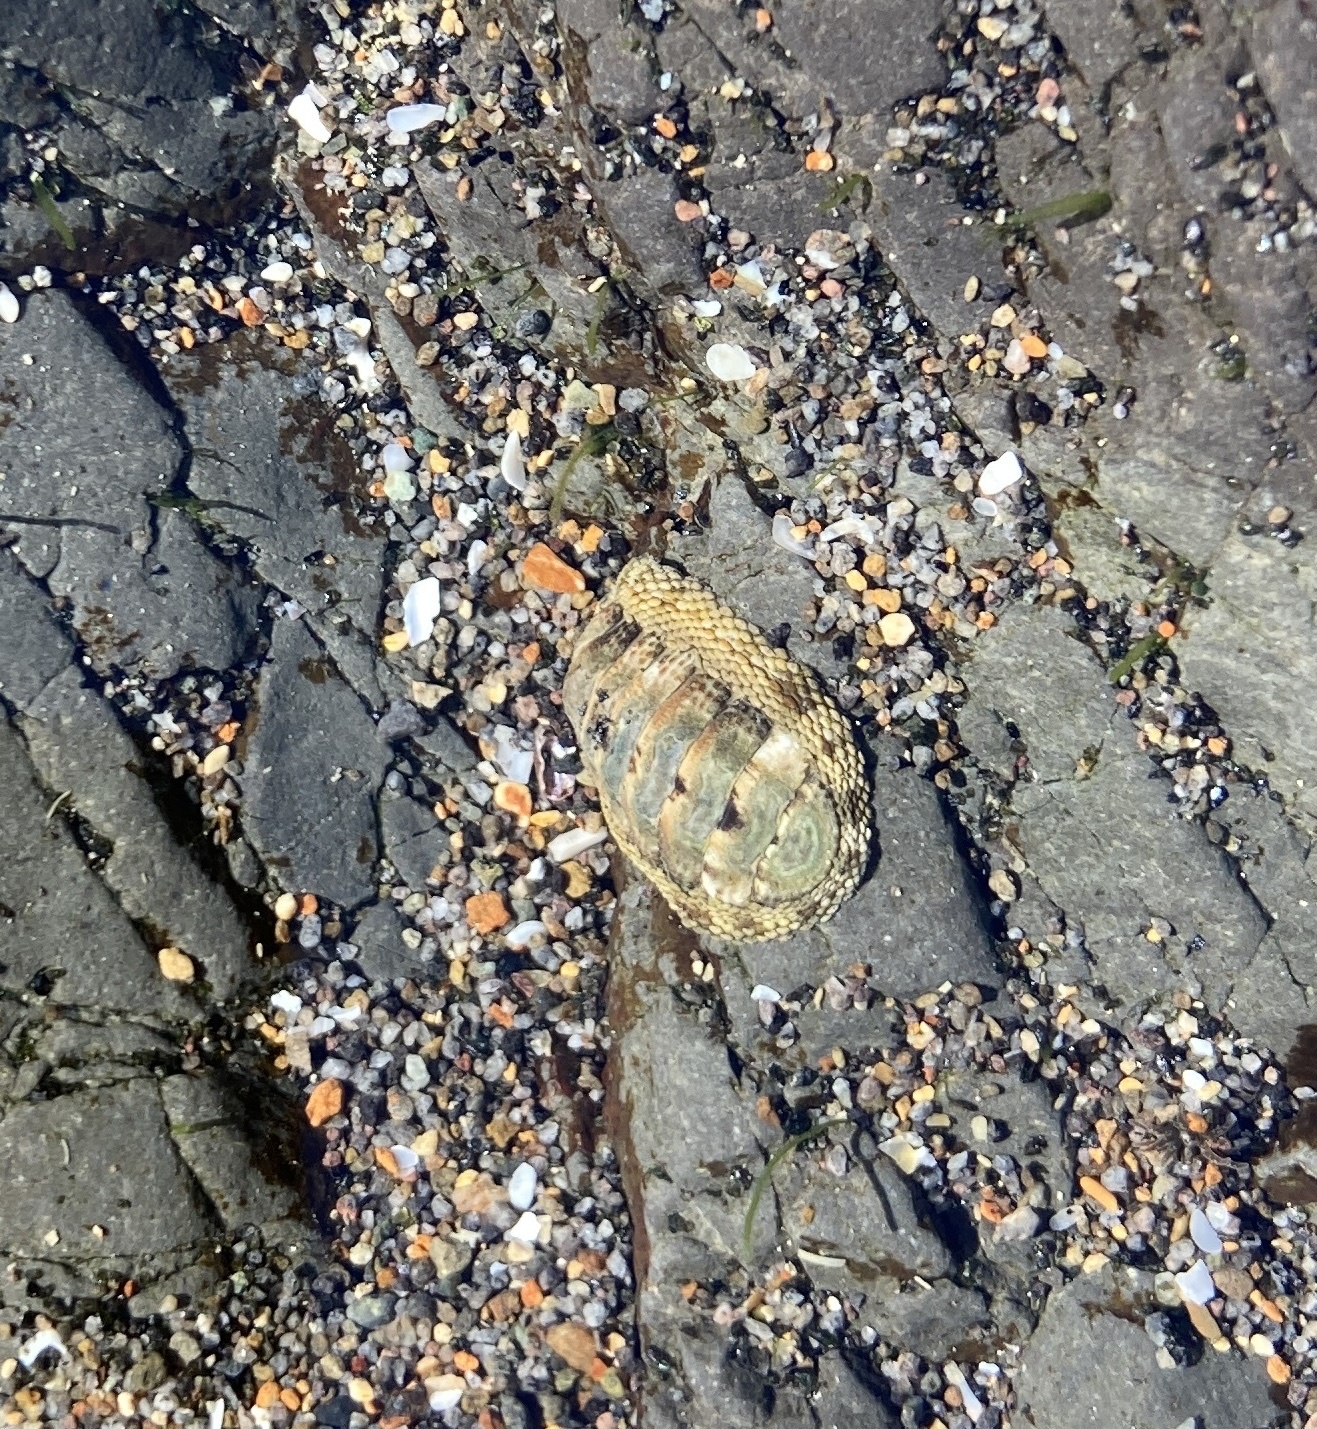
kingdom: Animalia
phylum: Mollusca
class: Polyplacophora
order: Chitonida
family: Chitonidae
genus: Sypharochiton
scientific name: Sypharochiton pelliserpentis
